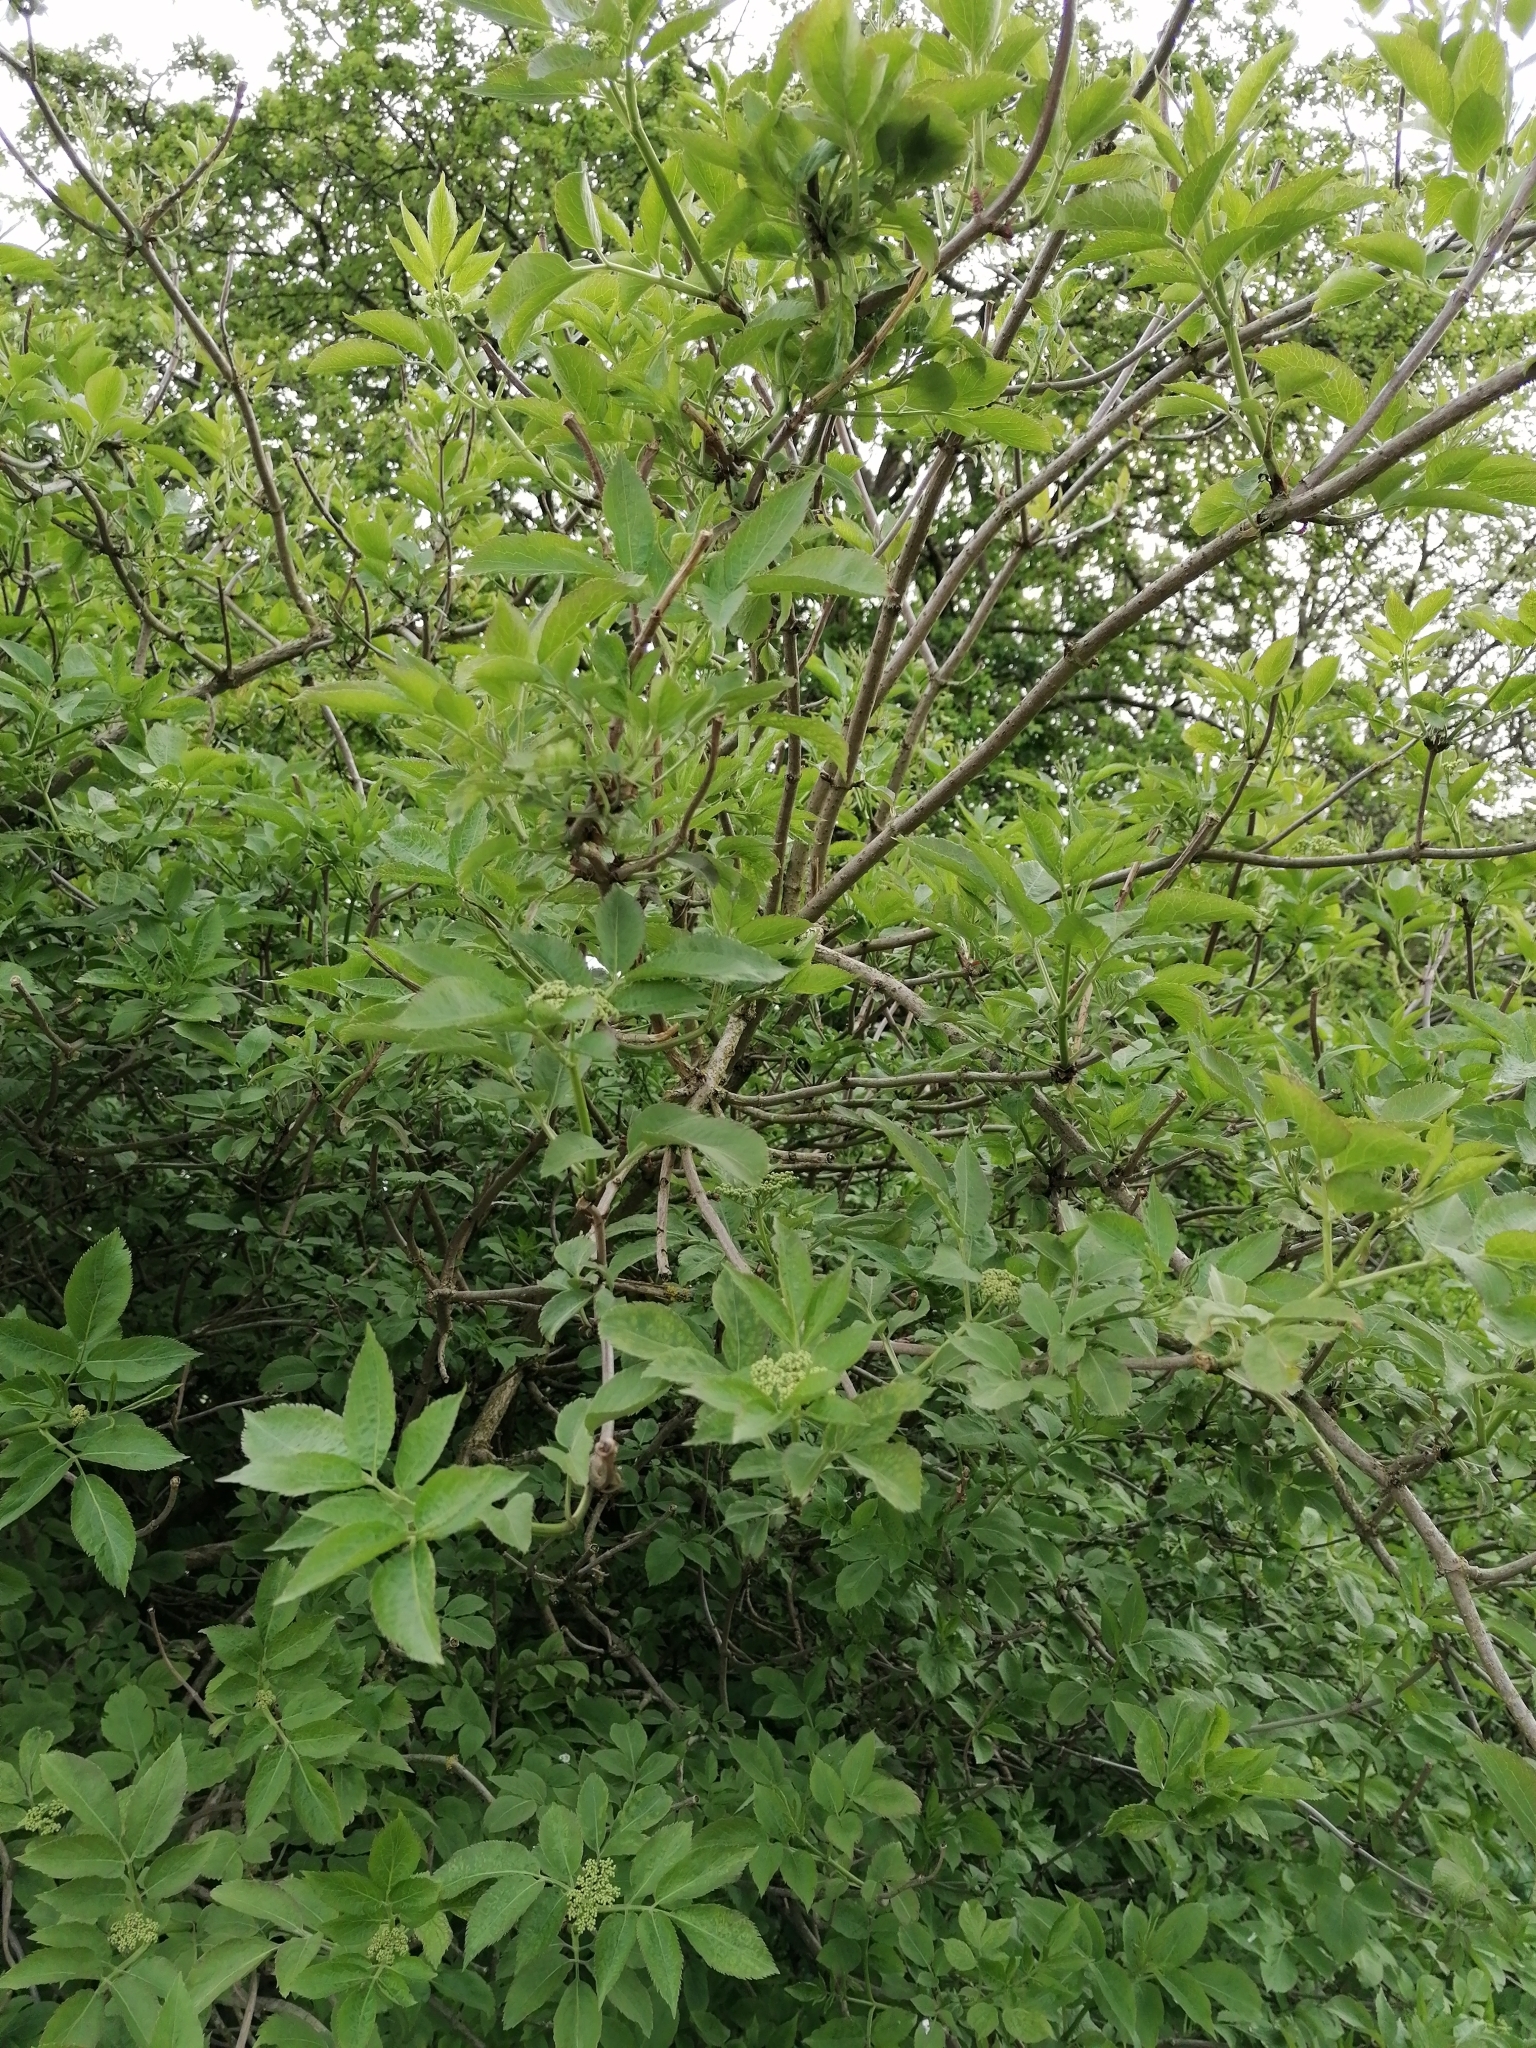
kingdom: Plantae
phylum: Tracheophyta
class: Magnoliopsida
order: Dipsacales
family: Viburnaceae
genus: Sambucus
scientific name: Sambucus nigra
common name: Elder
